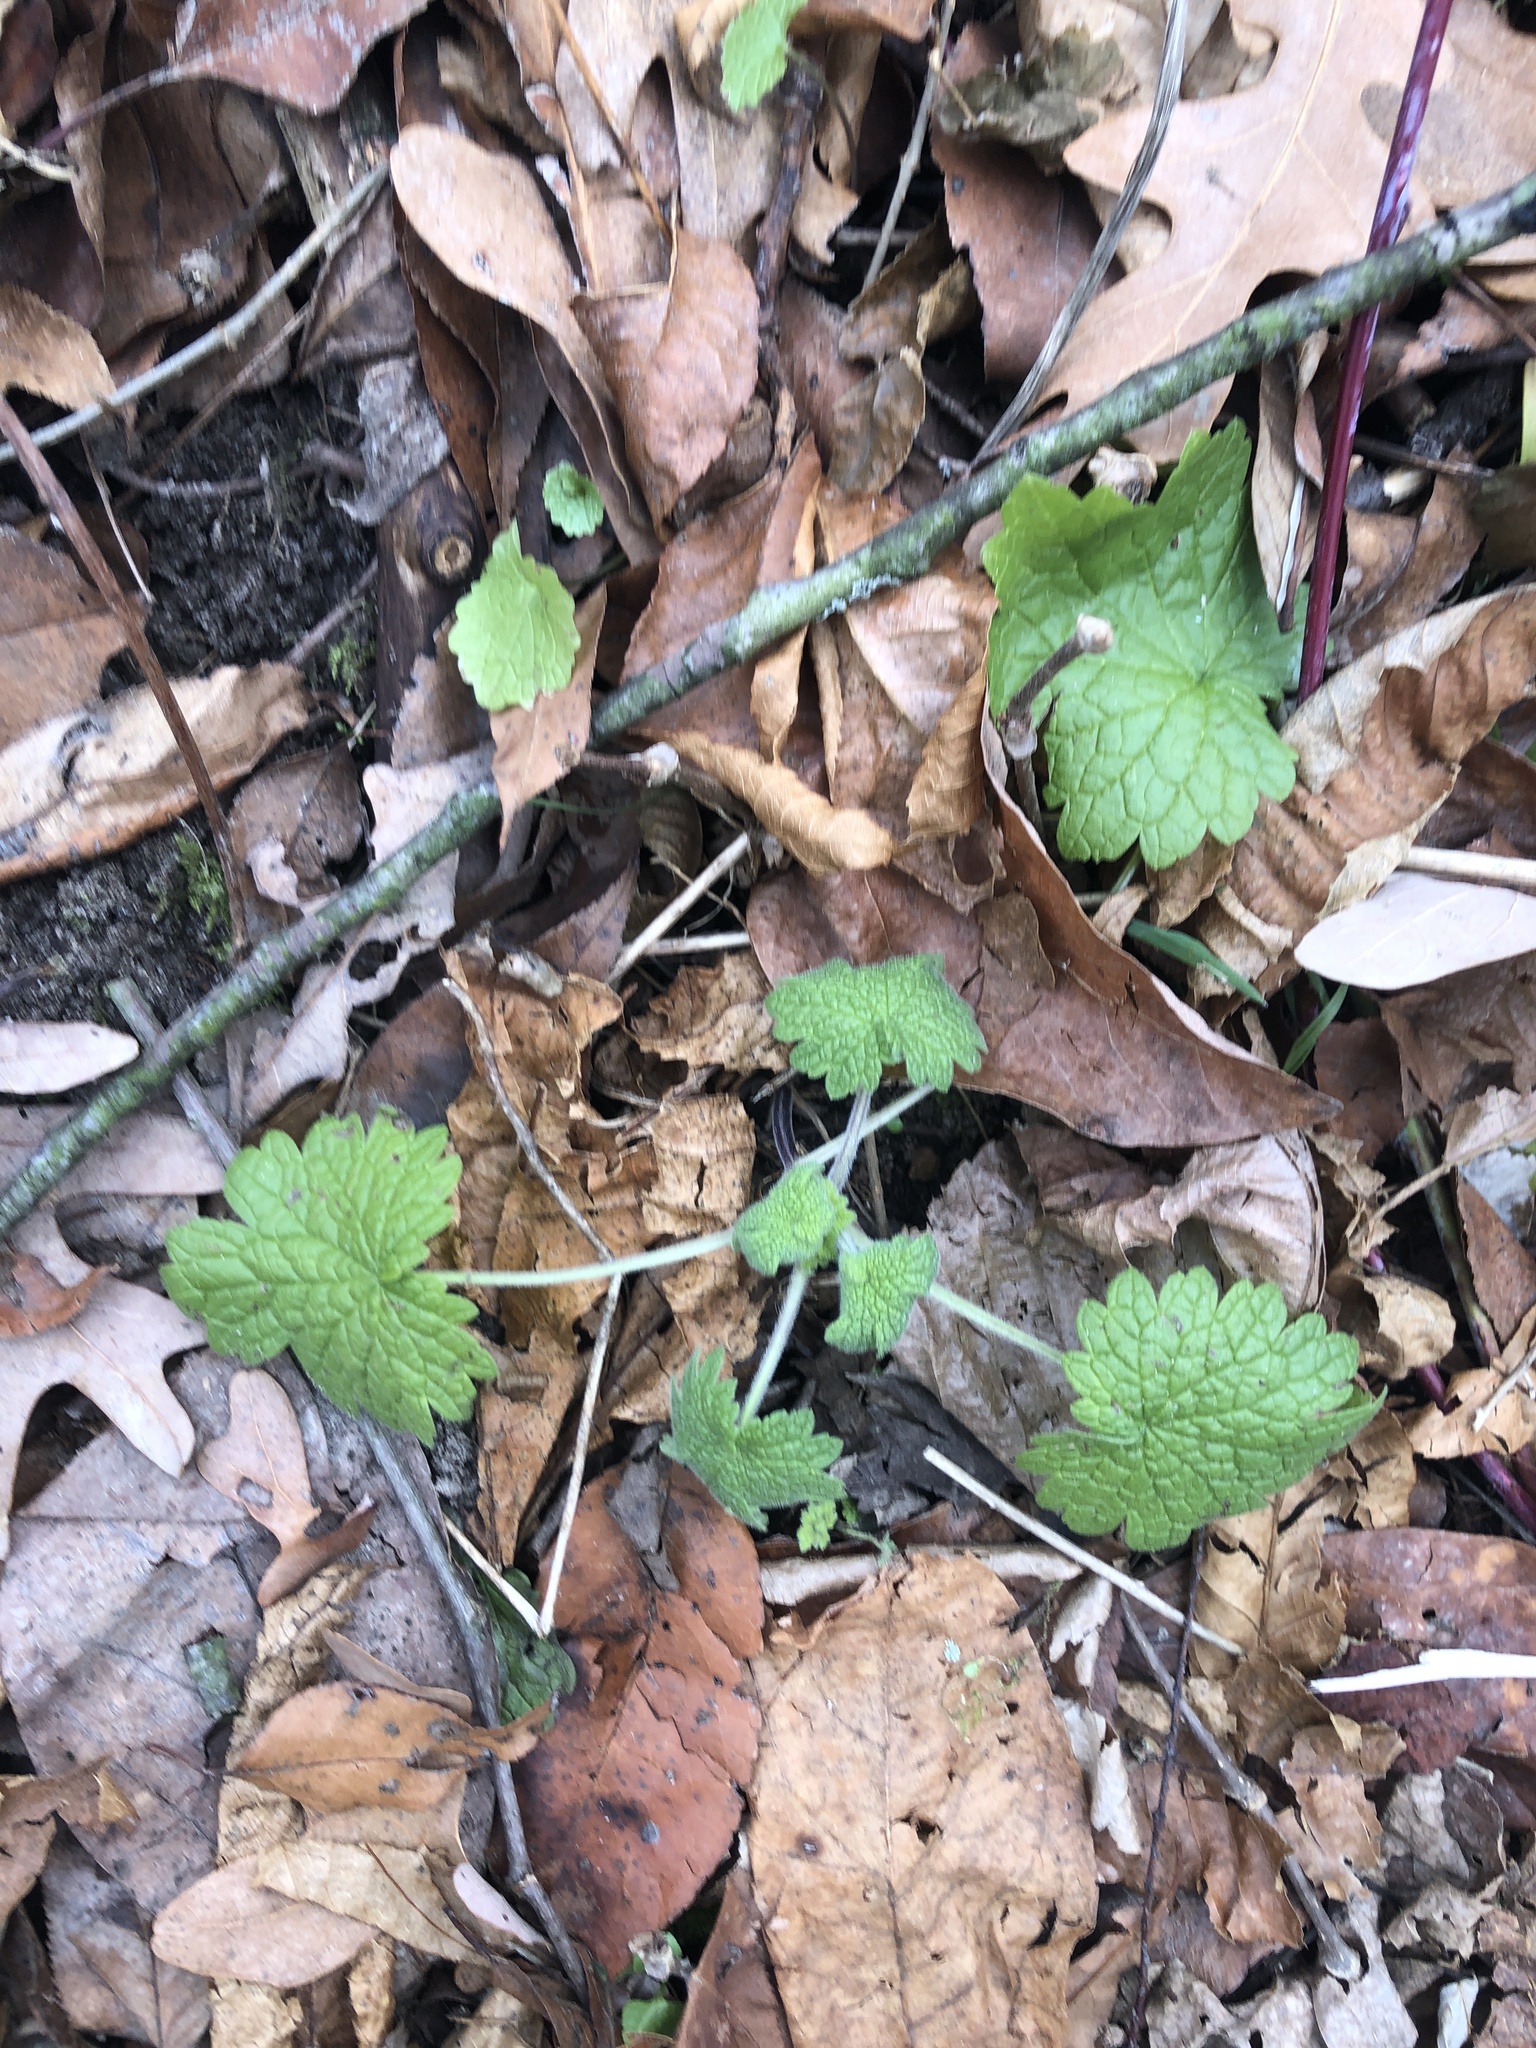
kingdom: Plantae
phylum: Tracheophyta
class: Magnoliopsida
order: Lamiales
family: Lamiaceae
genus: Leonurus
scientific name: Leonurus cardiaca
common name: Motherwort
